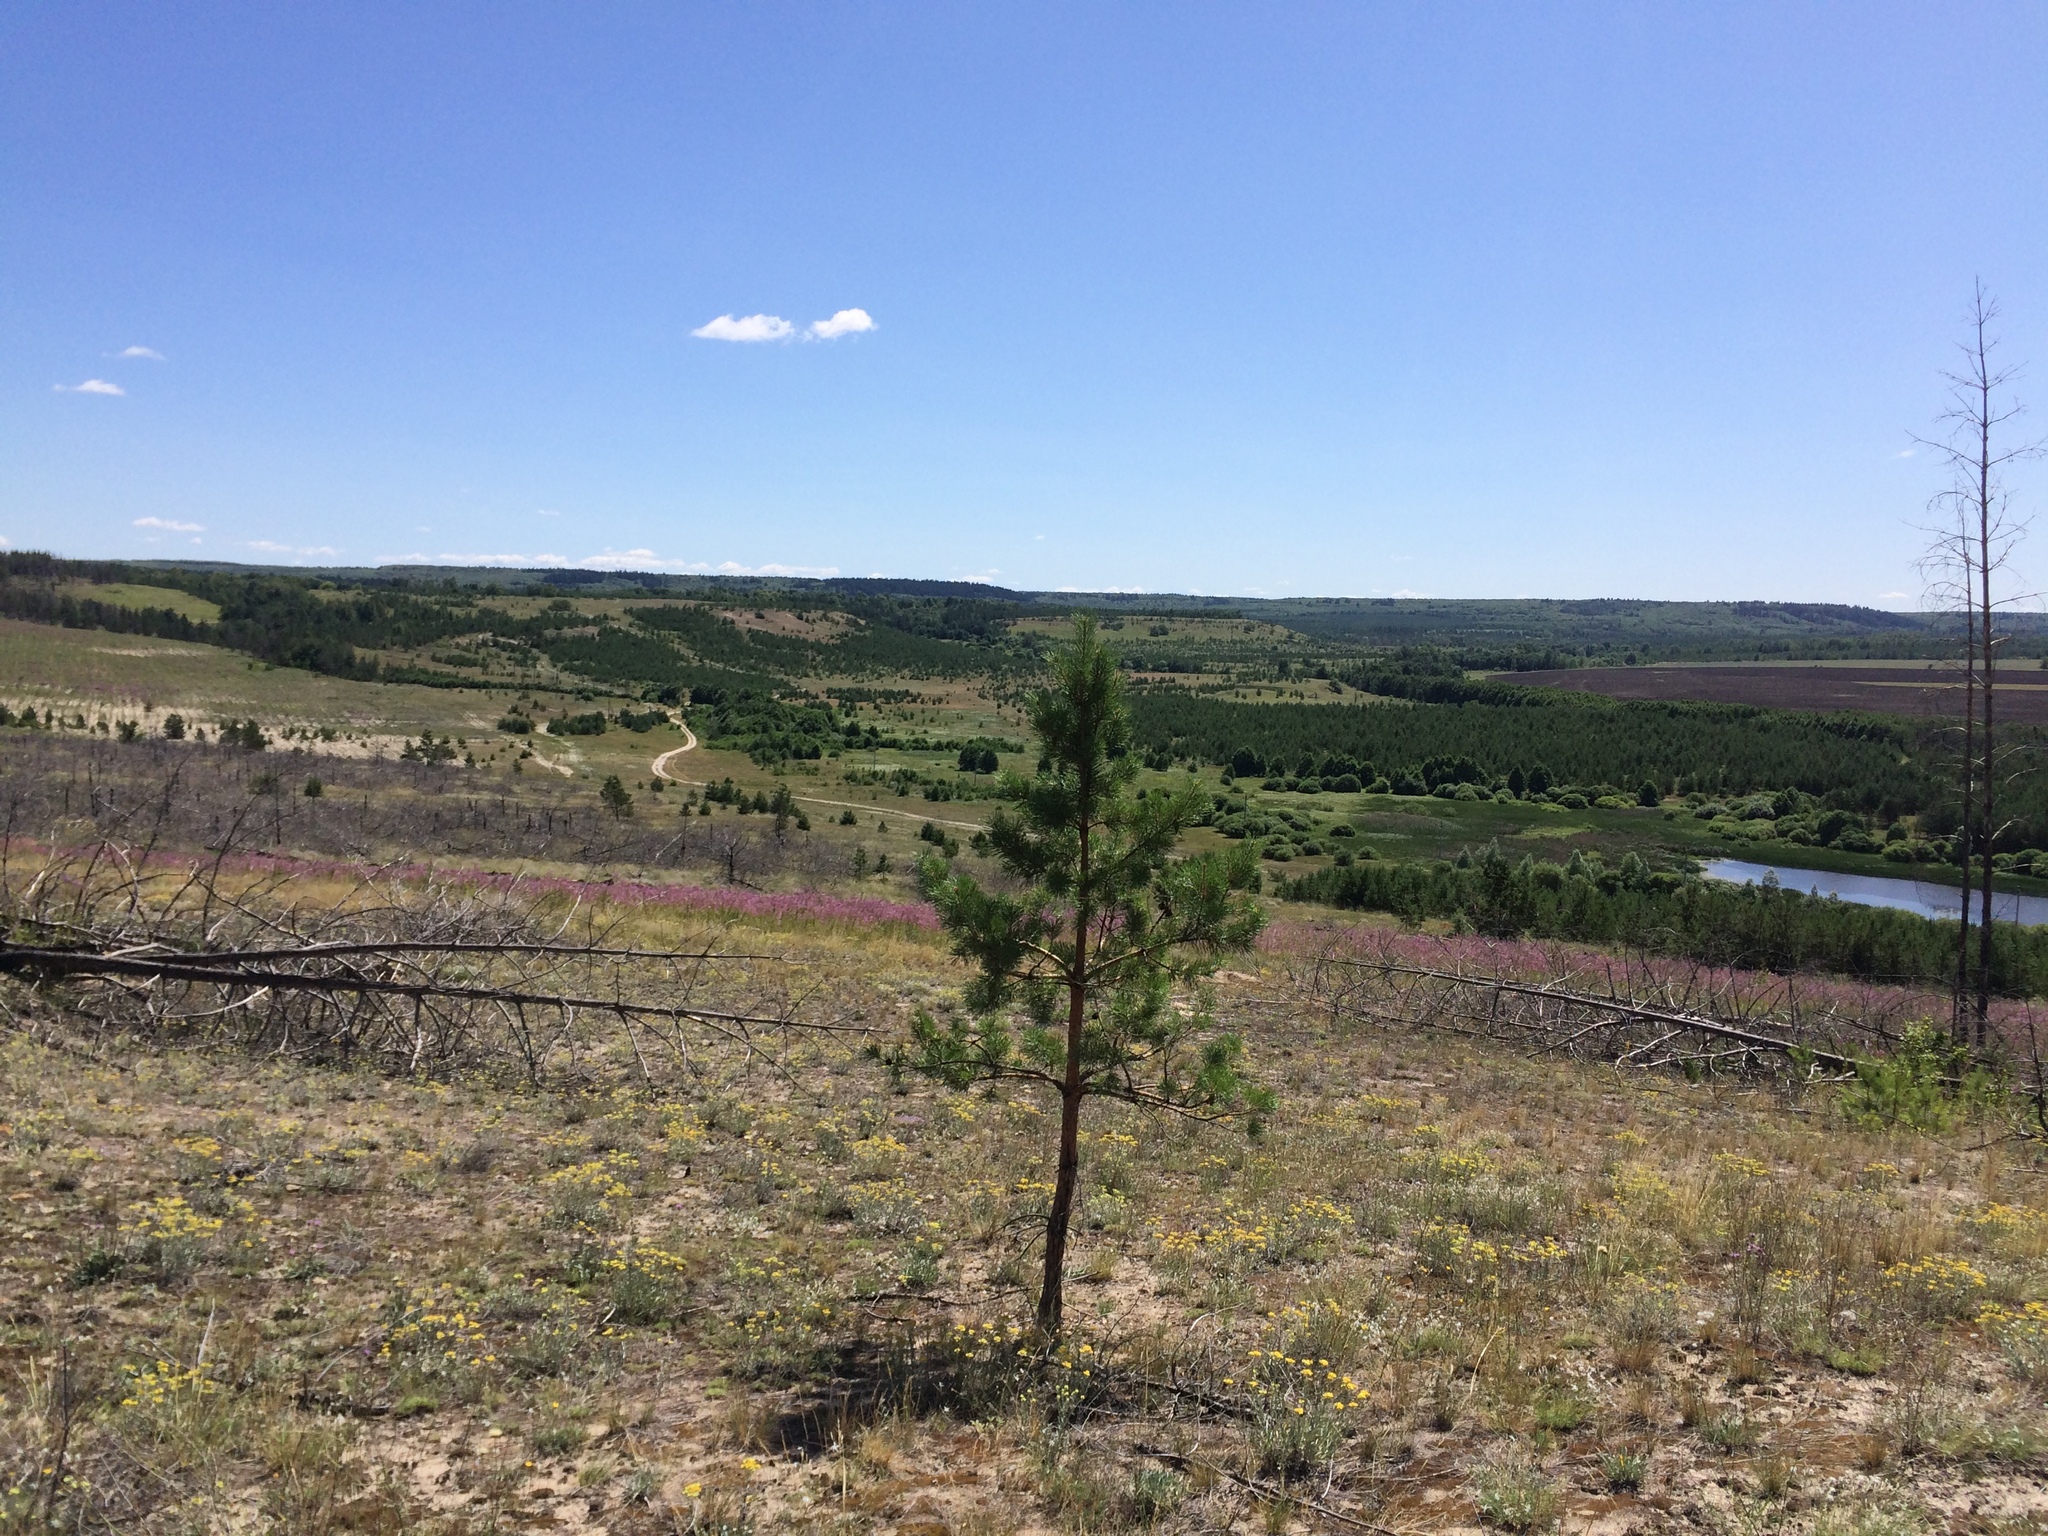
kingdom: Plantae
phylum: Tracheophyta
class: Pinopsida
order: Pinales
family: Pinaceae
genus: Pinus
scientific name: Pinus sylvestris
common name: Scots pine
